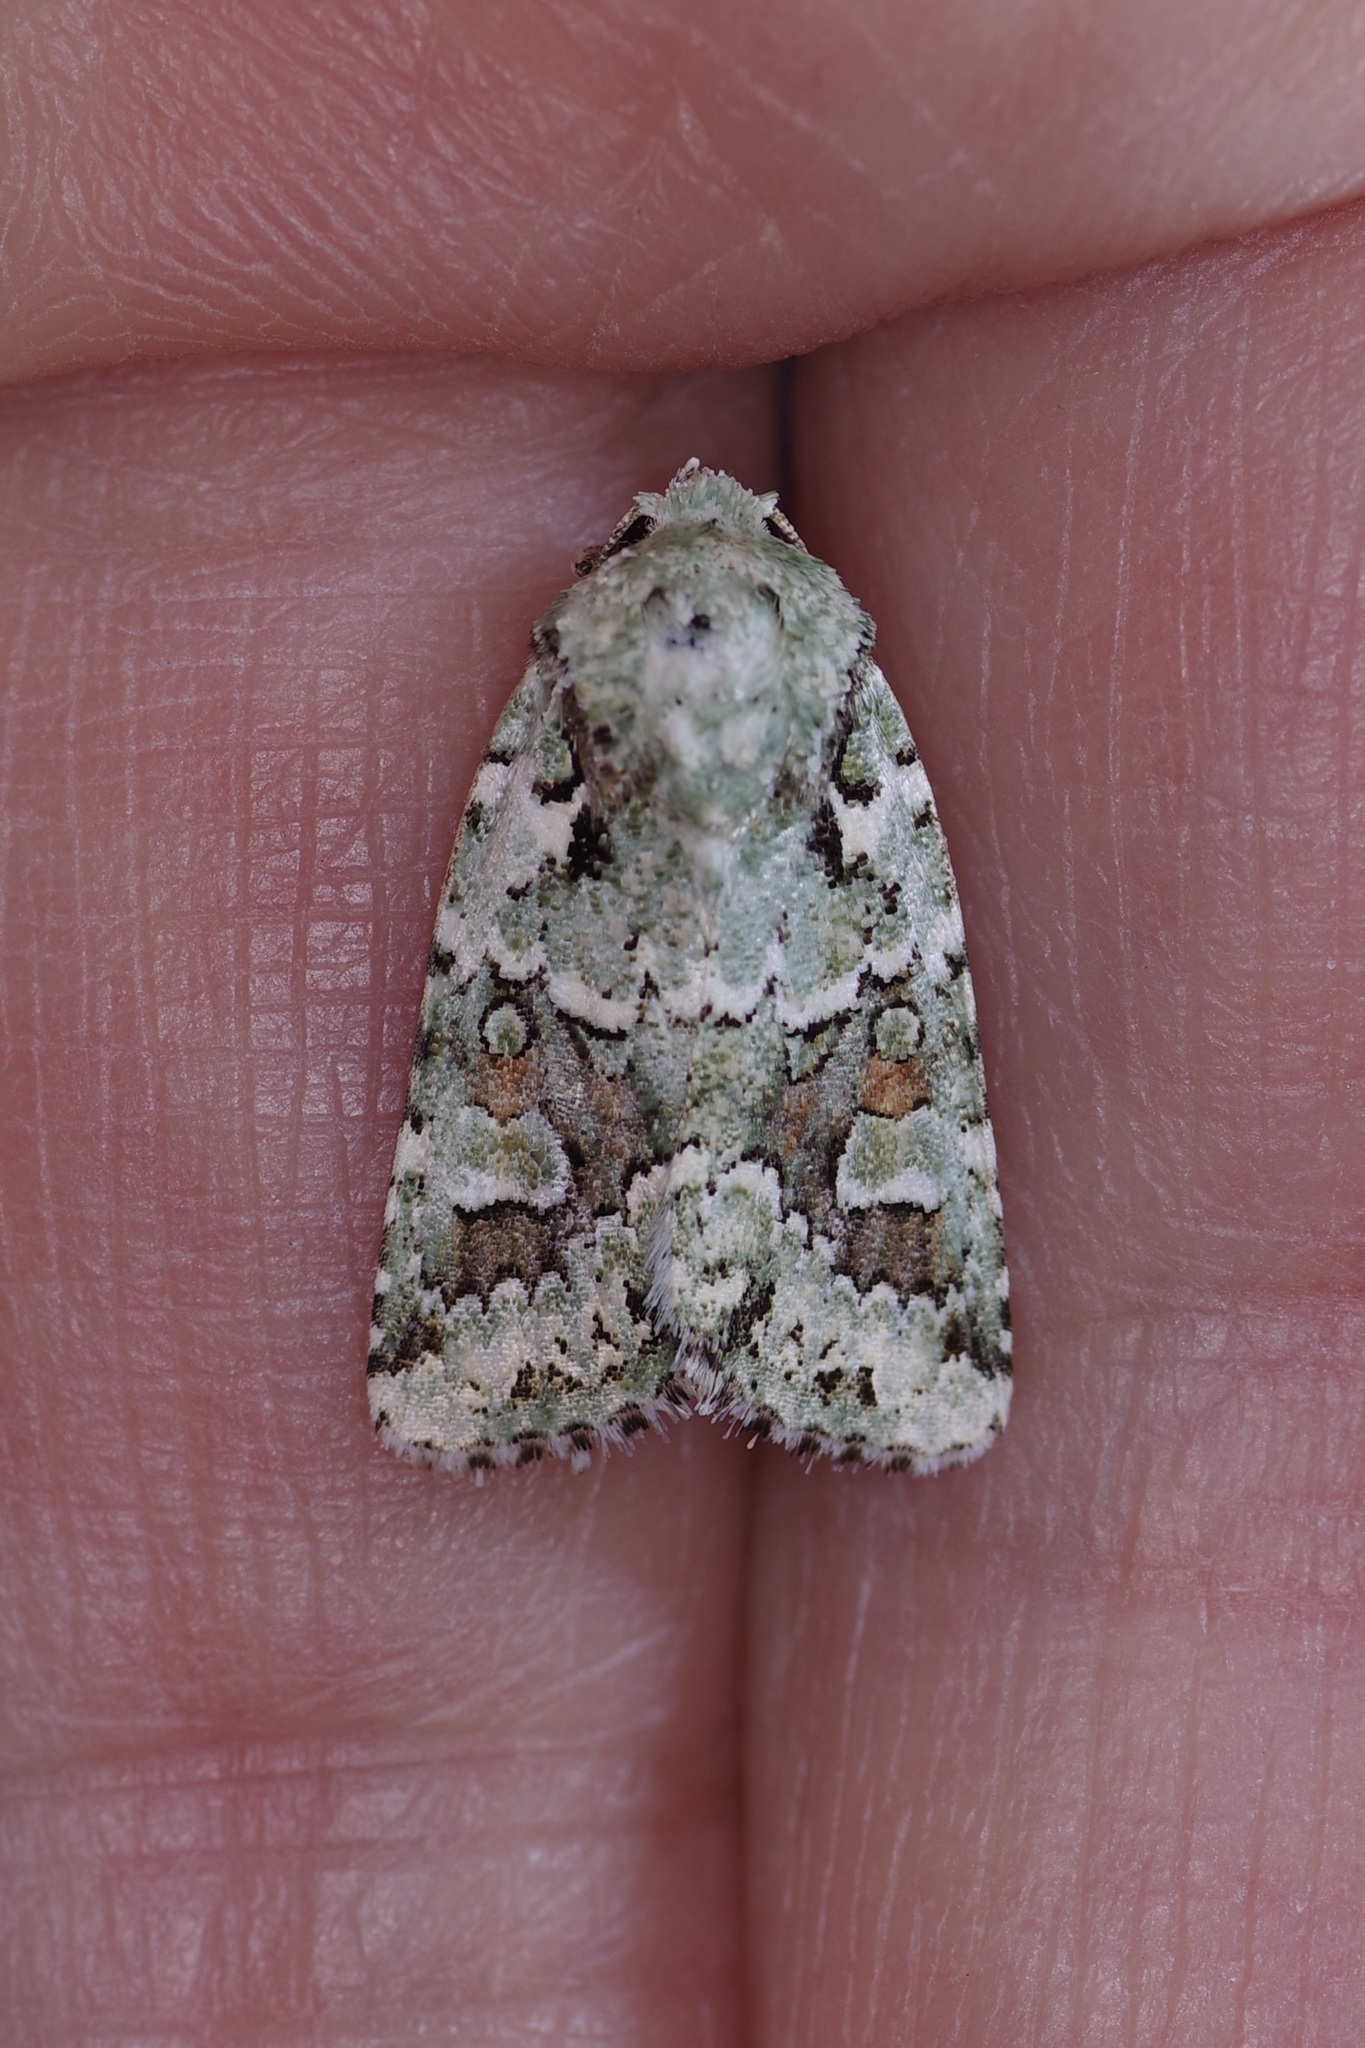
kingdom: Animalia
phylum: Arthropoda
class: Insecta
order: Lepidoptera
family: Noctuidae
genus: Lacinipolia
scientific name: Lacinipolia laudabilis
